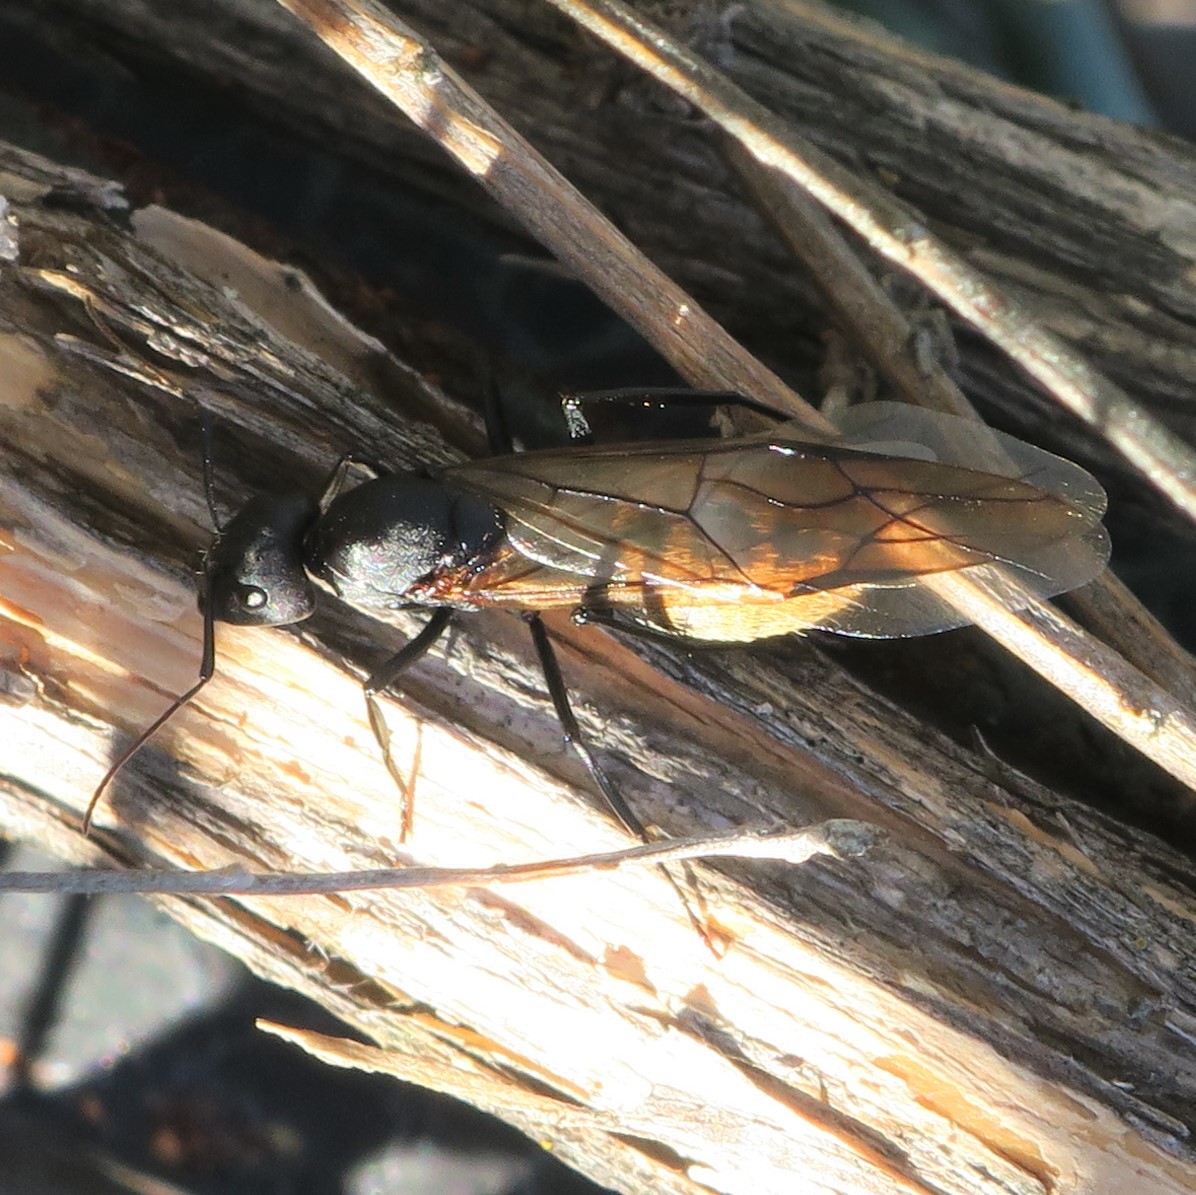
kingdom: Animalia
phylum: Arthropoda
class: Insecta
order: Hymenoptera
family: Formicidae
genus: Camponotus
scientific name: Camponotus fulvopilosus
